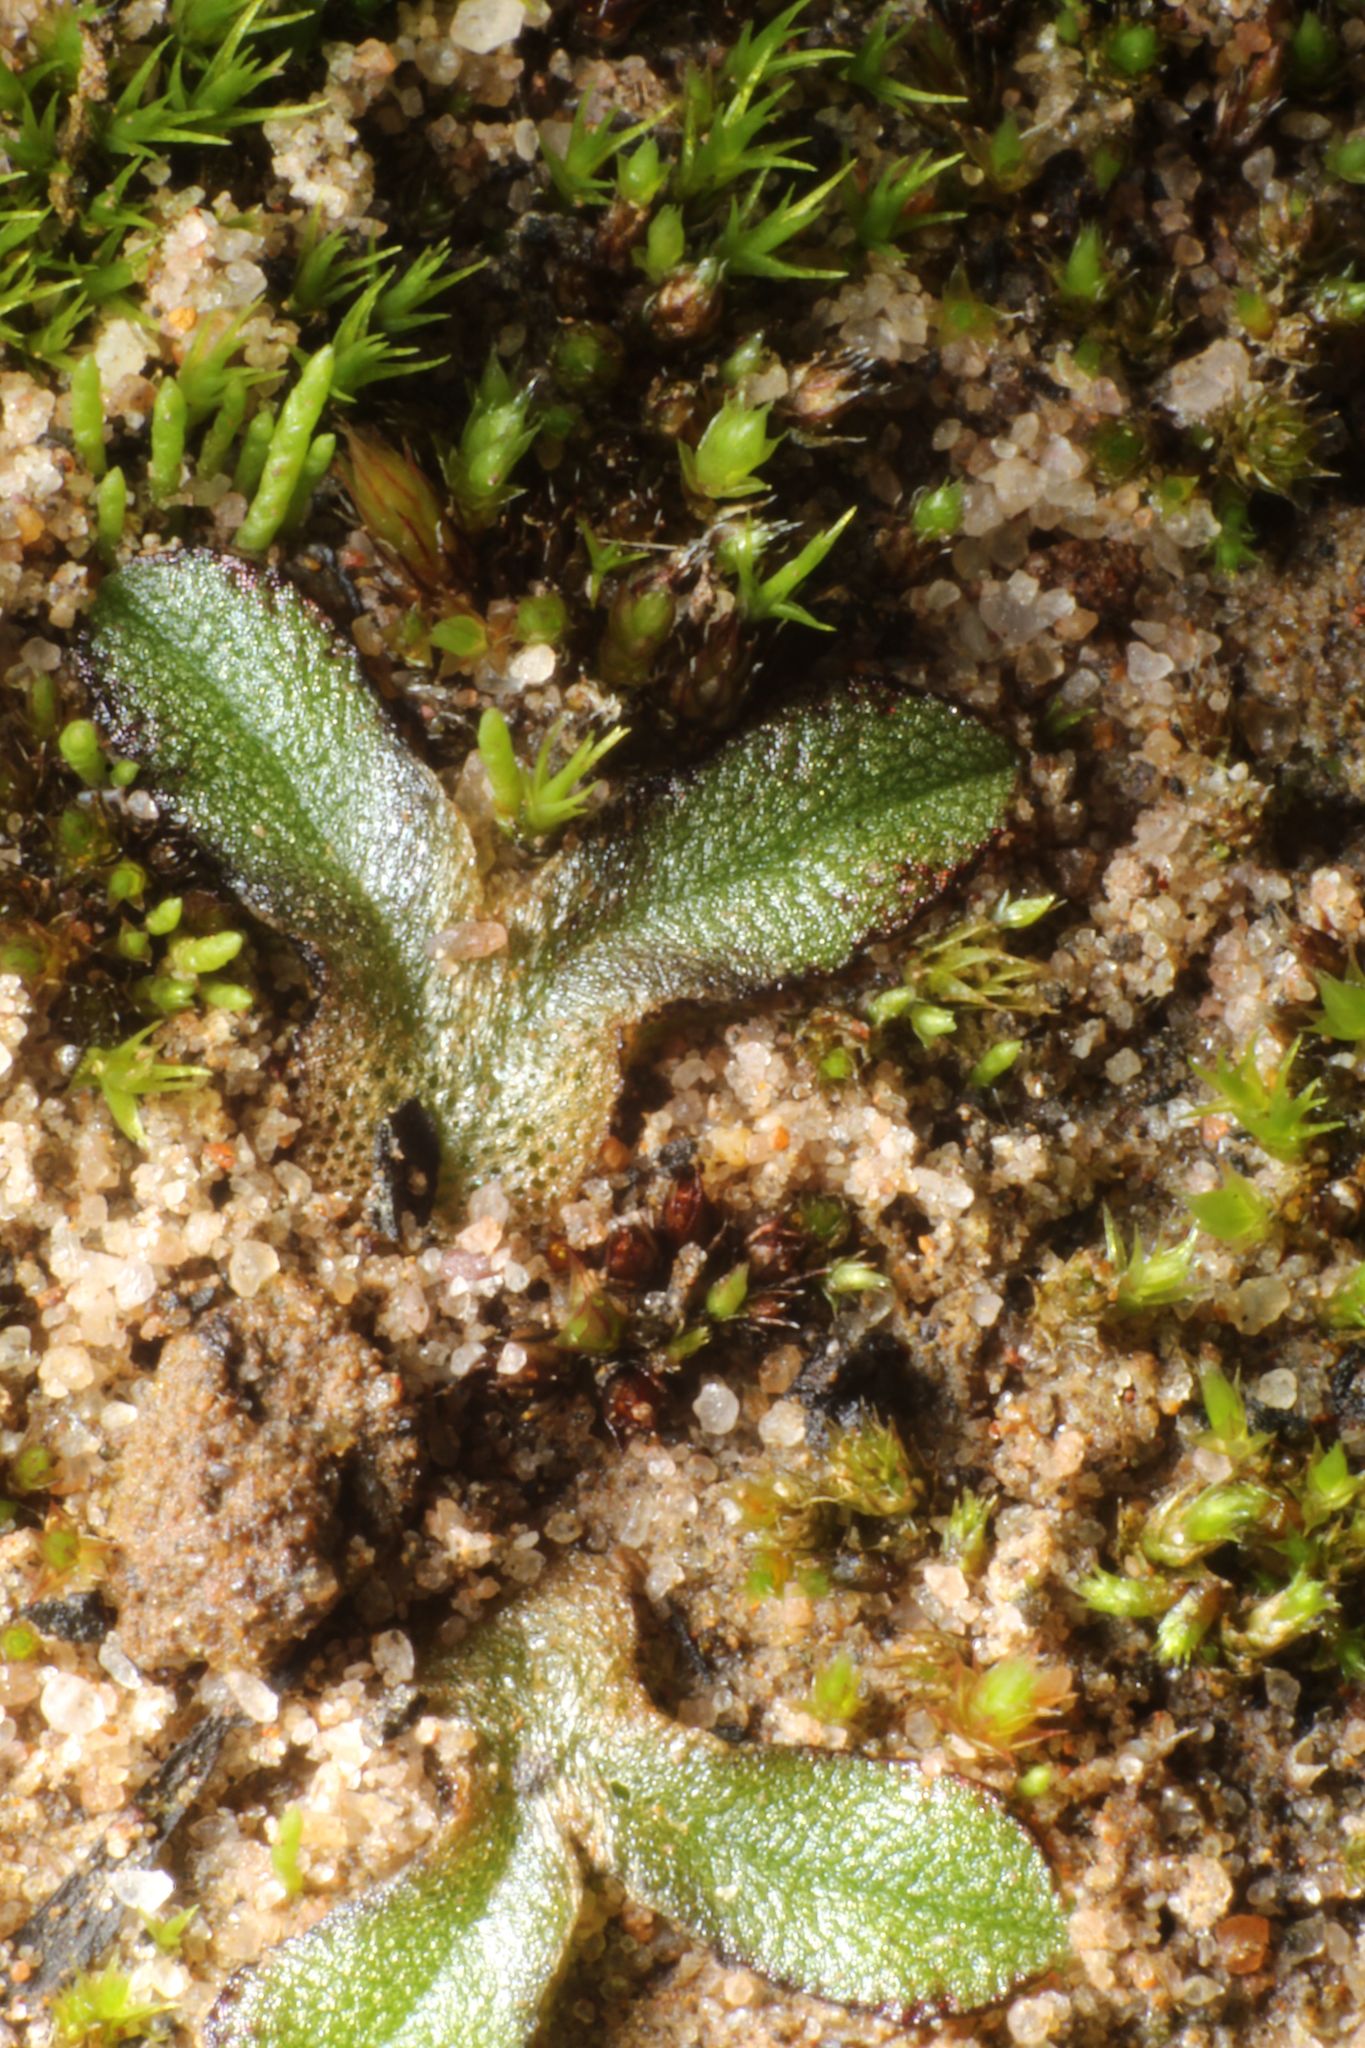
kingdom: Plantae
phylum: Marchantiophyta
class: Marchantiopsida
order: Marchantiales
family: Ricciaceae
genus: Riccia
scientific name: Riccia crassa
